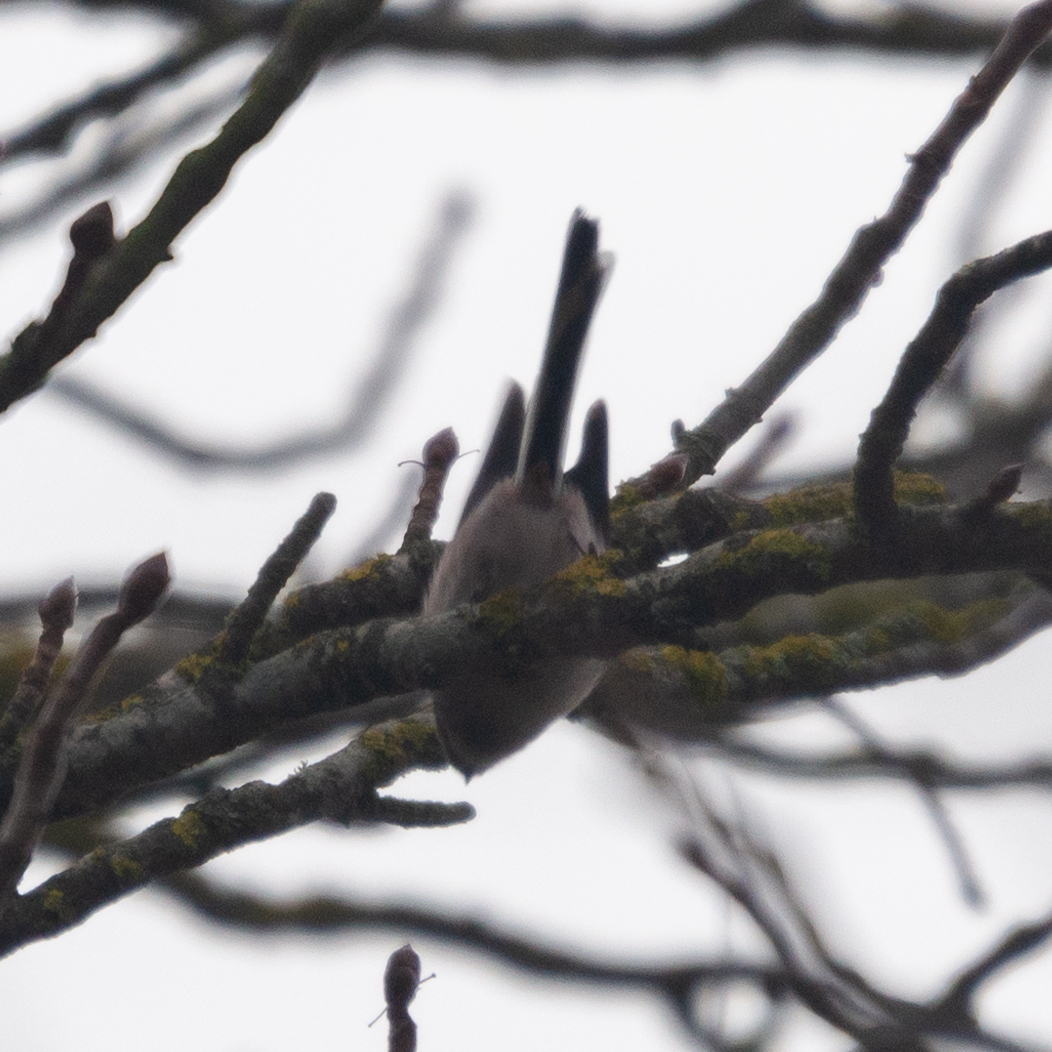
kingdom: Animalia
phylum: Chordata
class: Aves
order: Passeriformes
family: Aegithalidae
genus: Aegithalos
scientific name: Aegithalos caudatus
